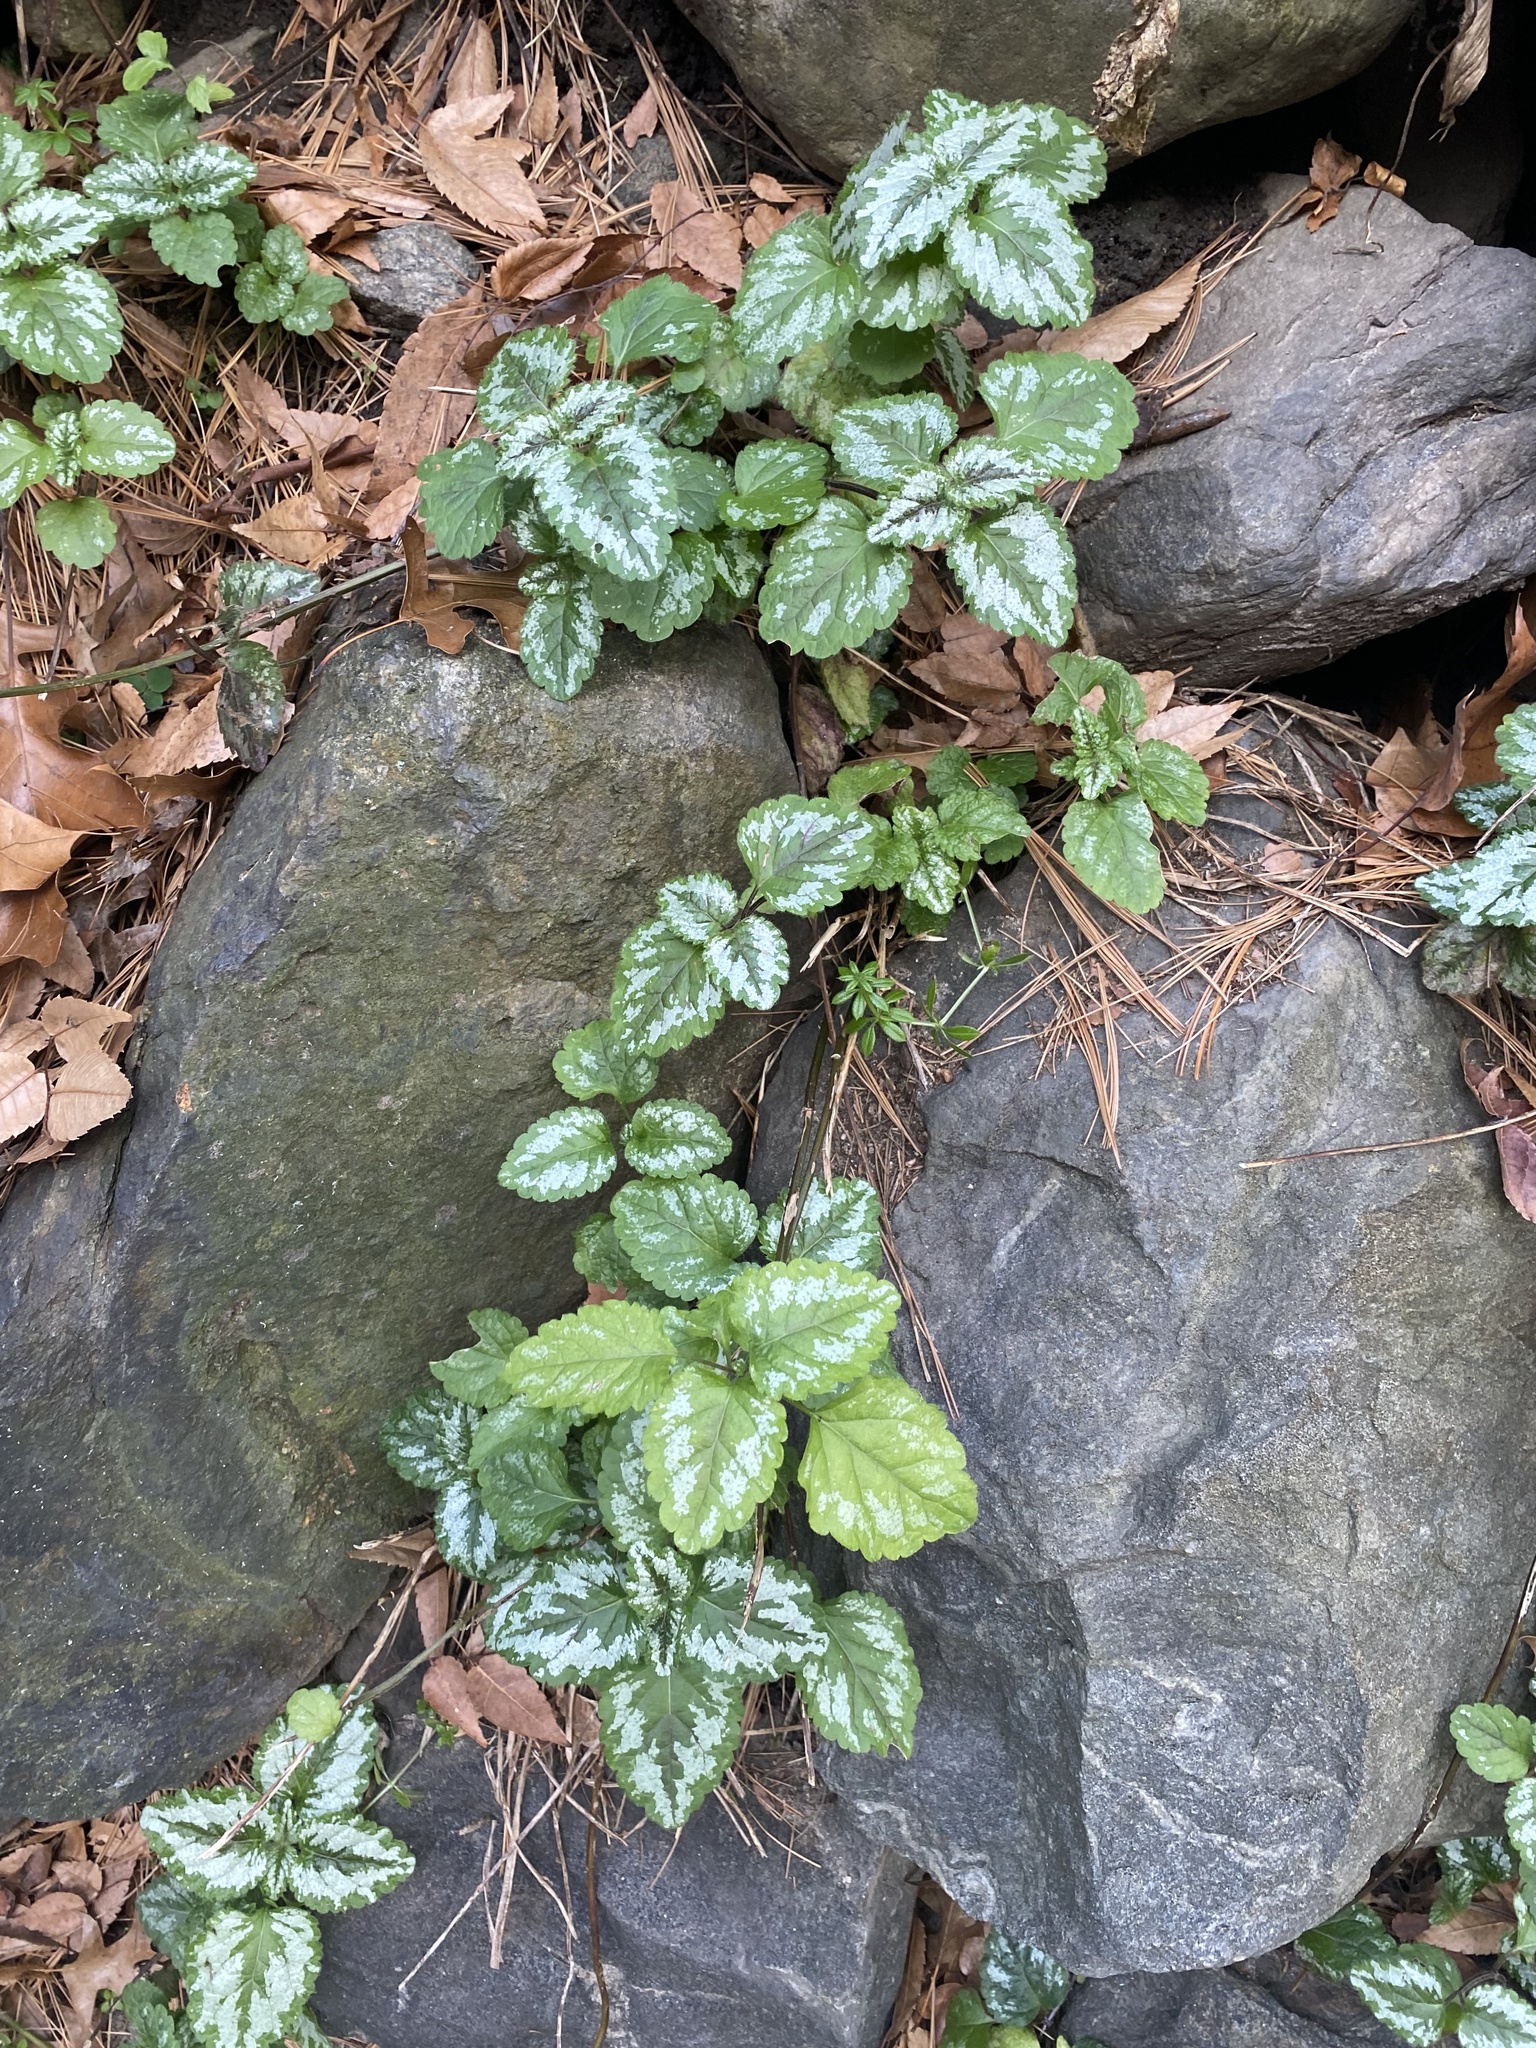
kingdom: Plantae
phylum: Tracheophyta
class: Magnoliopsida
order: Lamiales
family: Lamiaceae
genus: Lamium
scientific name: Lamium galeobdolon
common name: Yellow archangel
